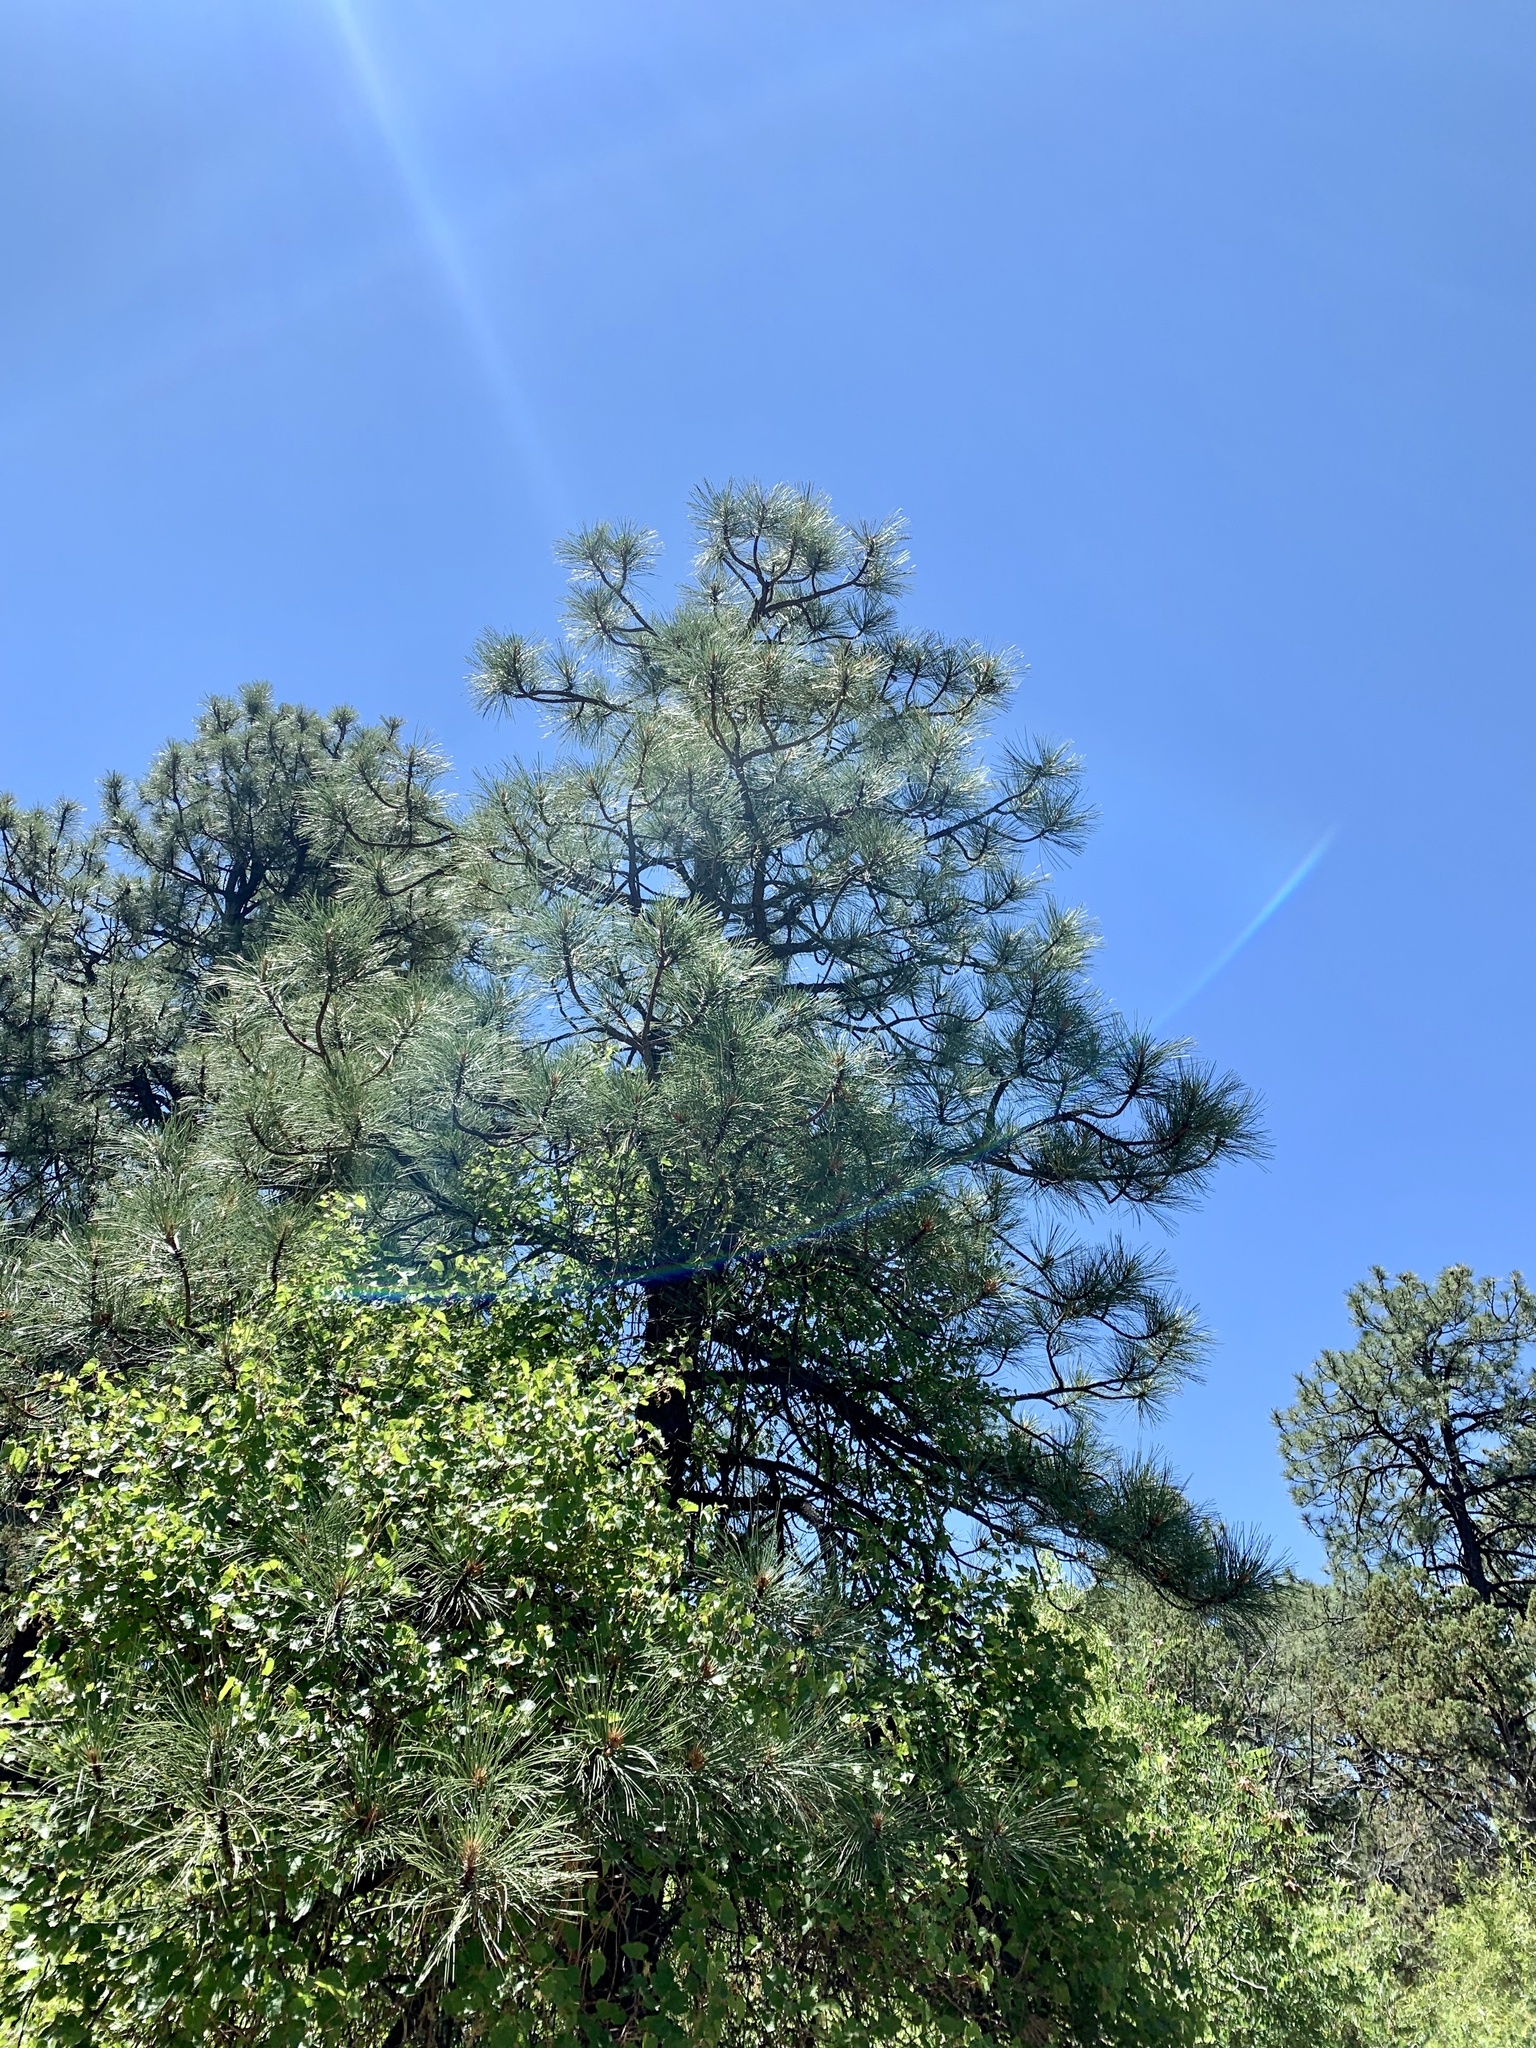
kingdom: Plantae
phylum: Tracheophyta
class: Pinopsida
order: Pinales
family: Pinaceae
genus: Pinus
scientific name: Pinus ponderosa
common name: Western yellow-pine
